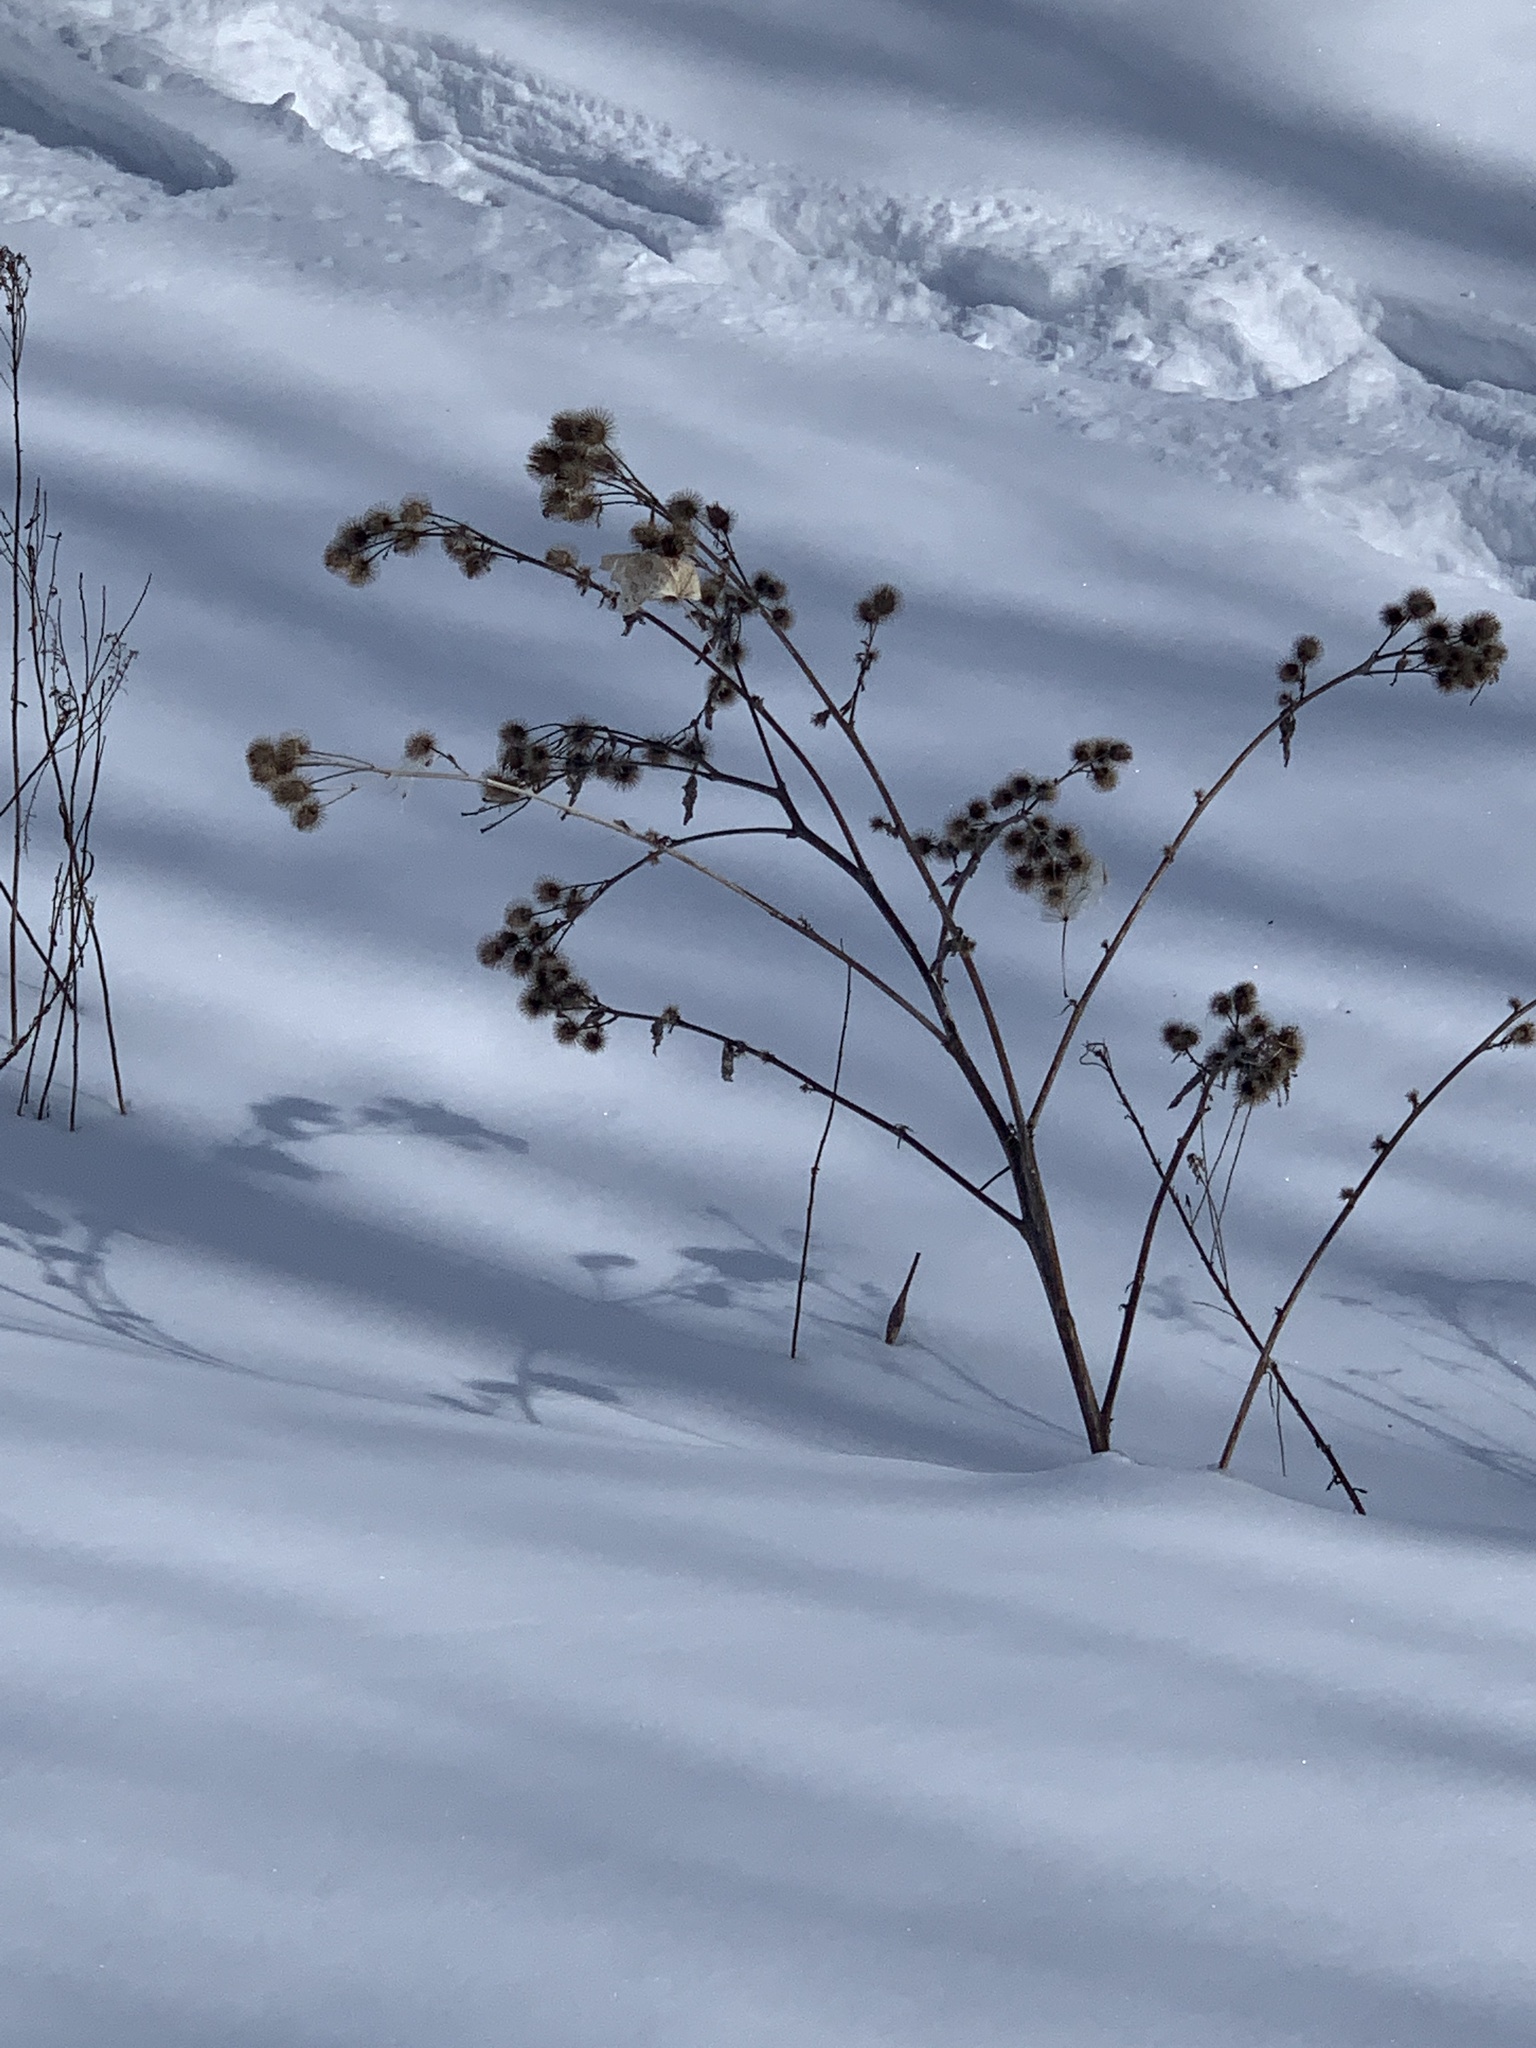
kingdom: Plantae
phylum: Tracheophyta
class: Magnoliopsida
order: Asterales
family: Asteraceae
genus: Arctium
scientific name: Arctium lappa
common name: Greater burdock
